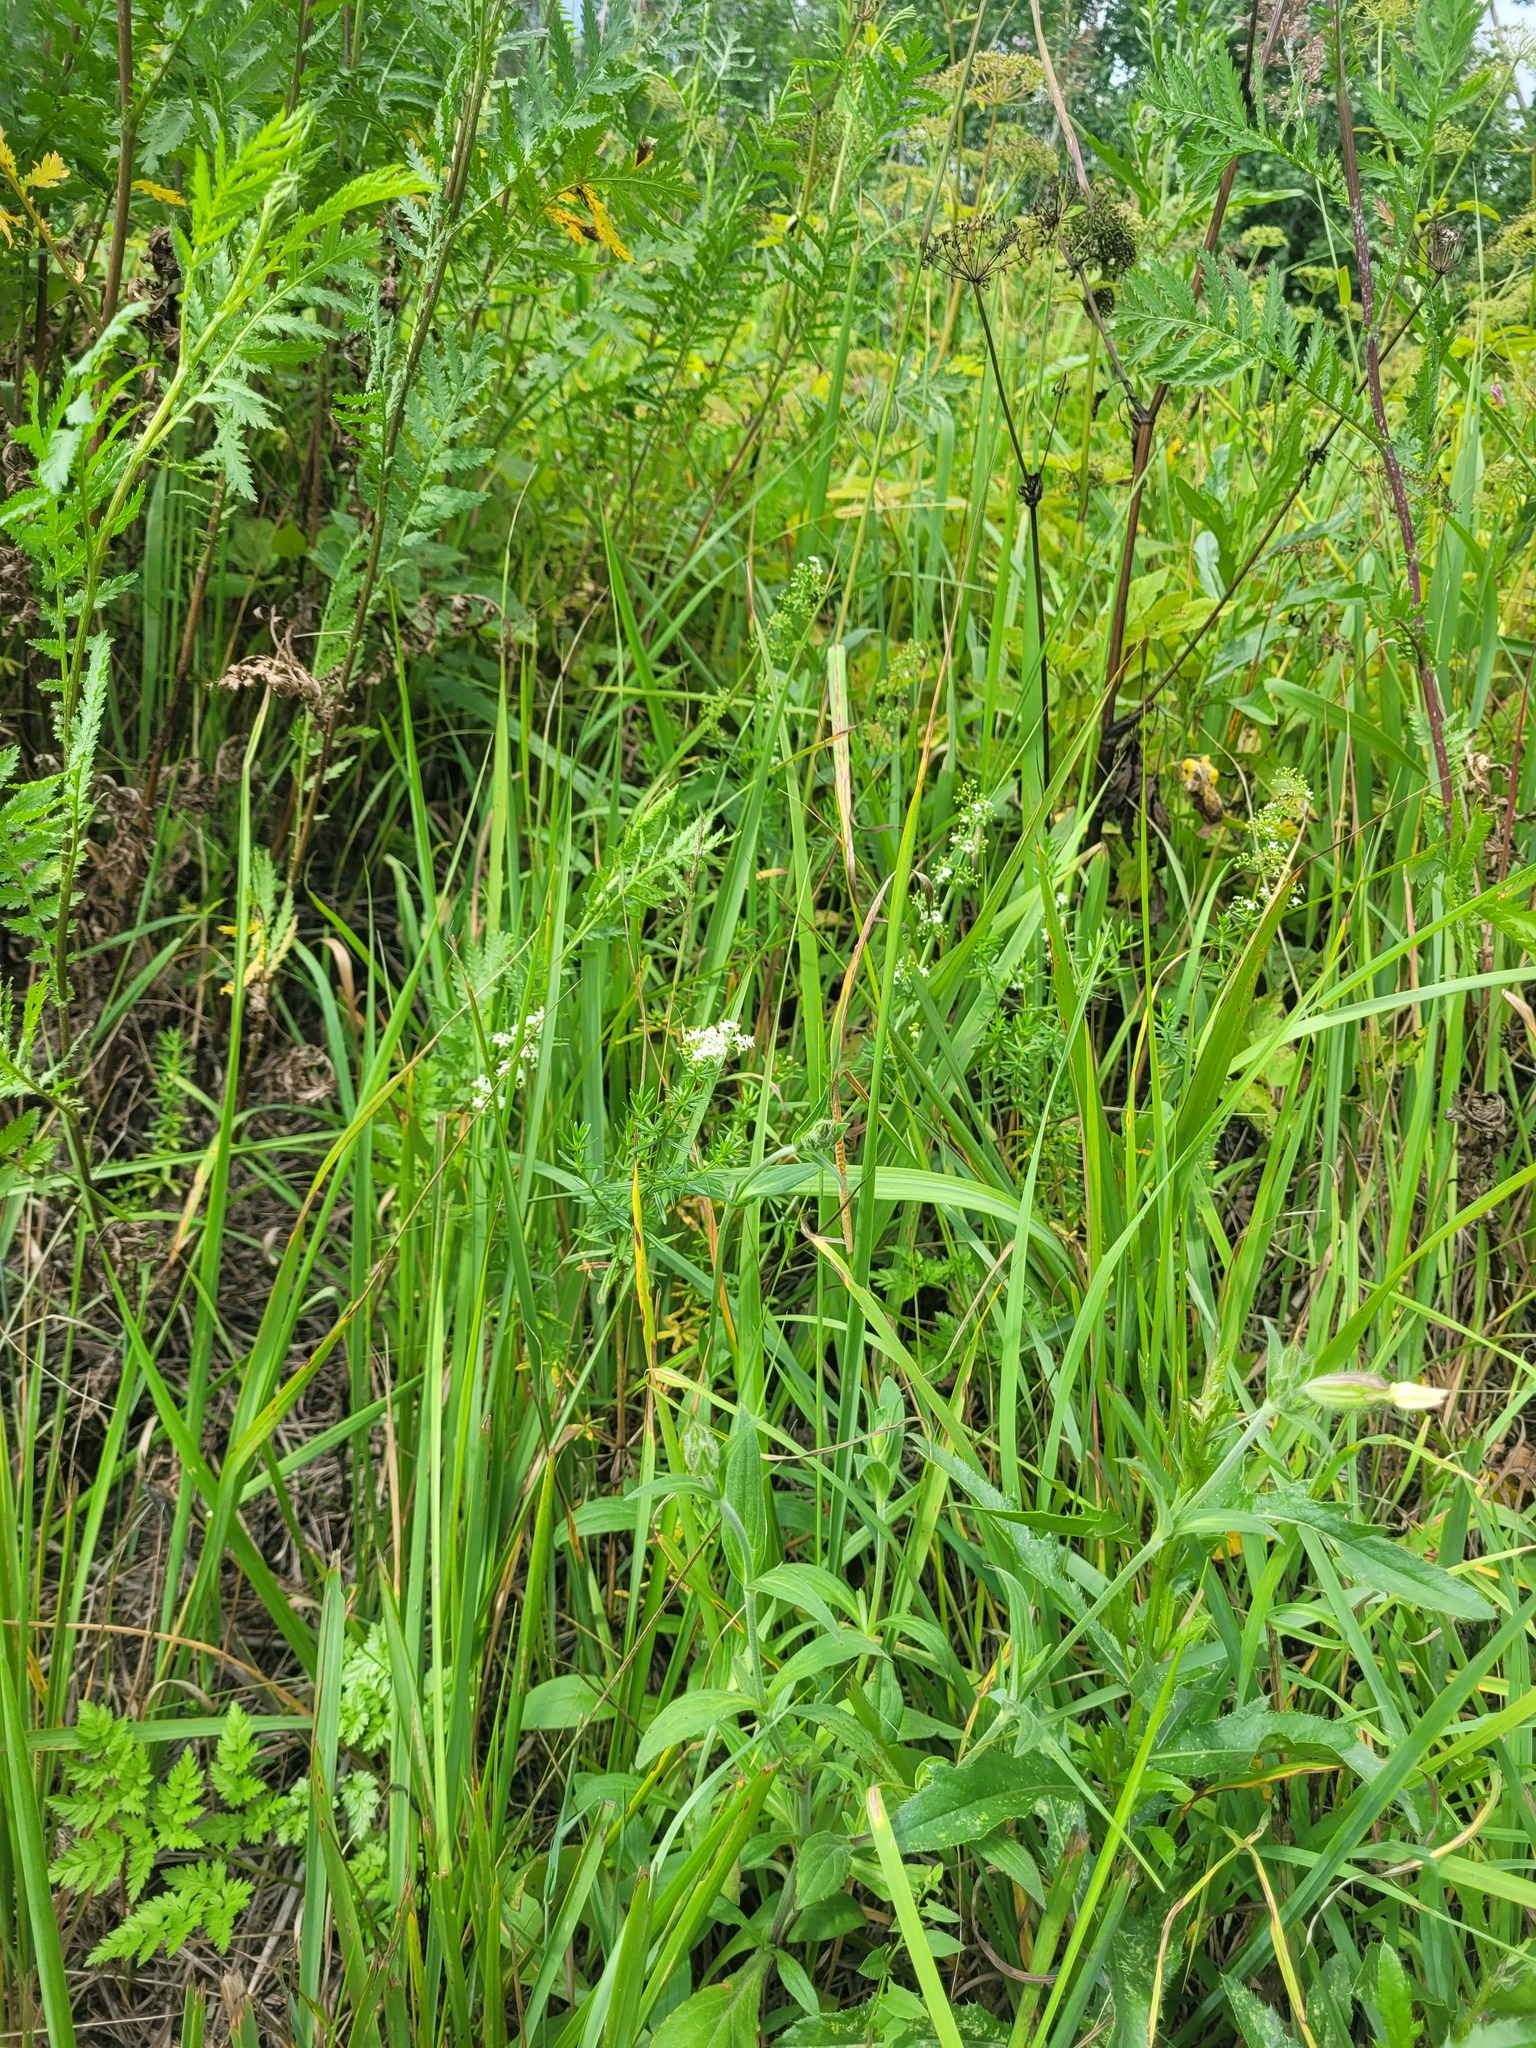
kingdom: Plantae
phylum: Tracheophyta
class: Magnoliopsida
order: Gentianales
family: Rubiaceae
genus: Galium
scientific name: Galium mollugo
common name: Hedge bedstraw
